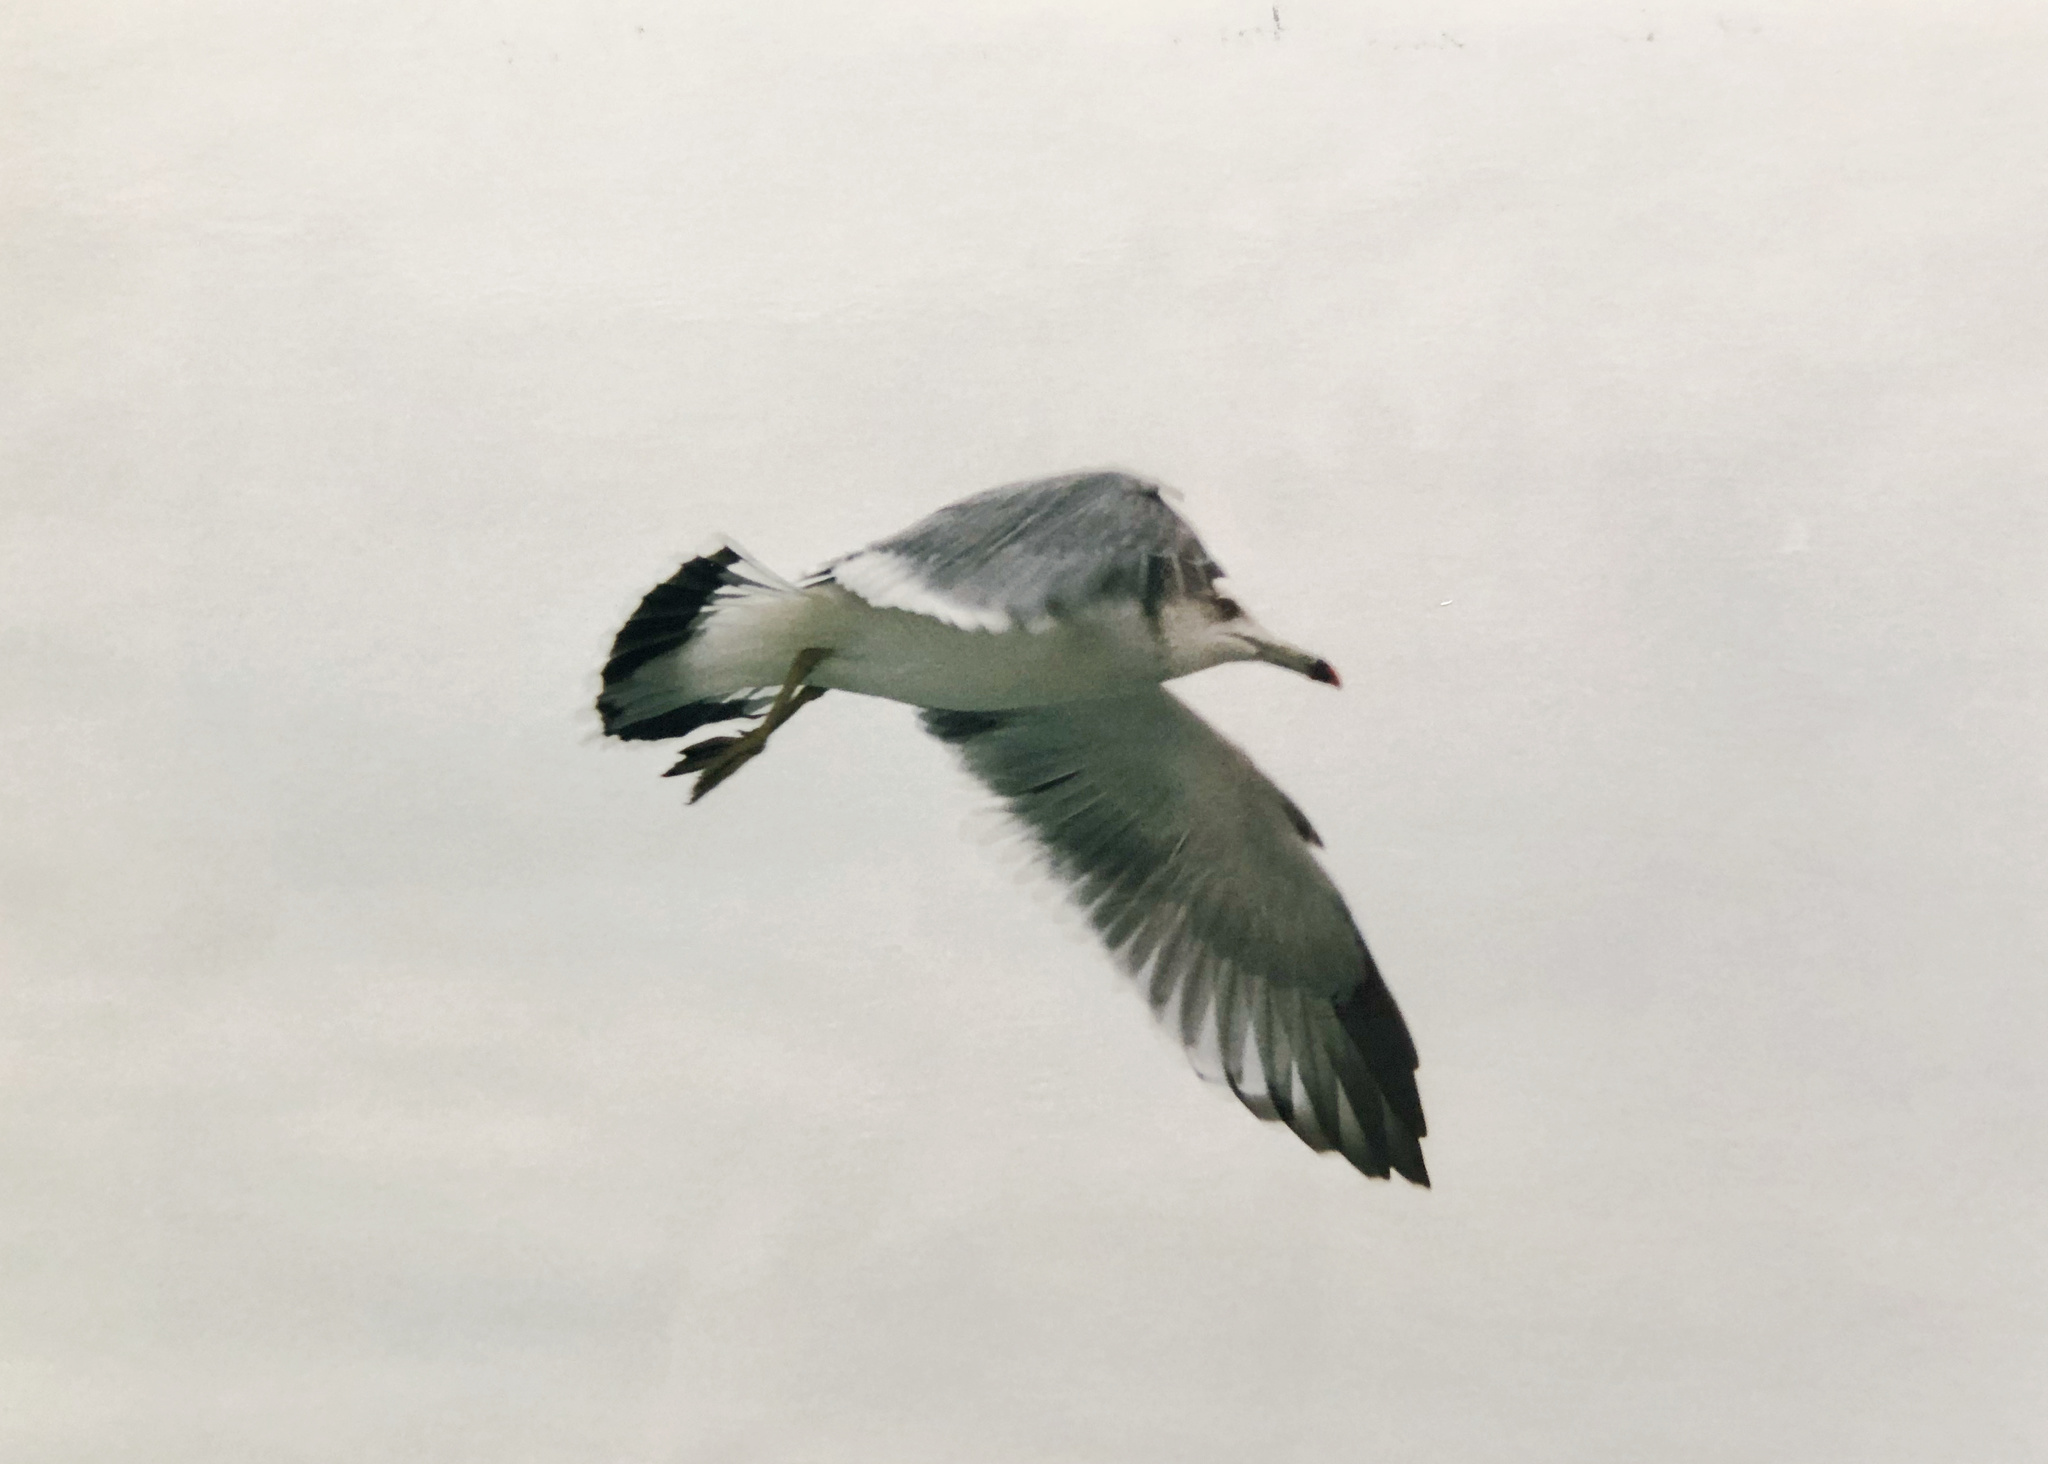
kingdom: Animalia
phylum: Chordata
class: Aves
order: Charadriiformes
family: Laridae
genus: Larus
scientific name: Larus crassirostris
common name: Black-tailed gull
